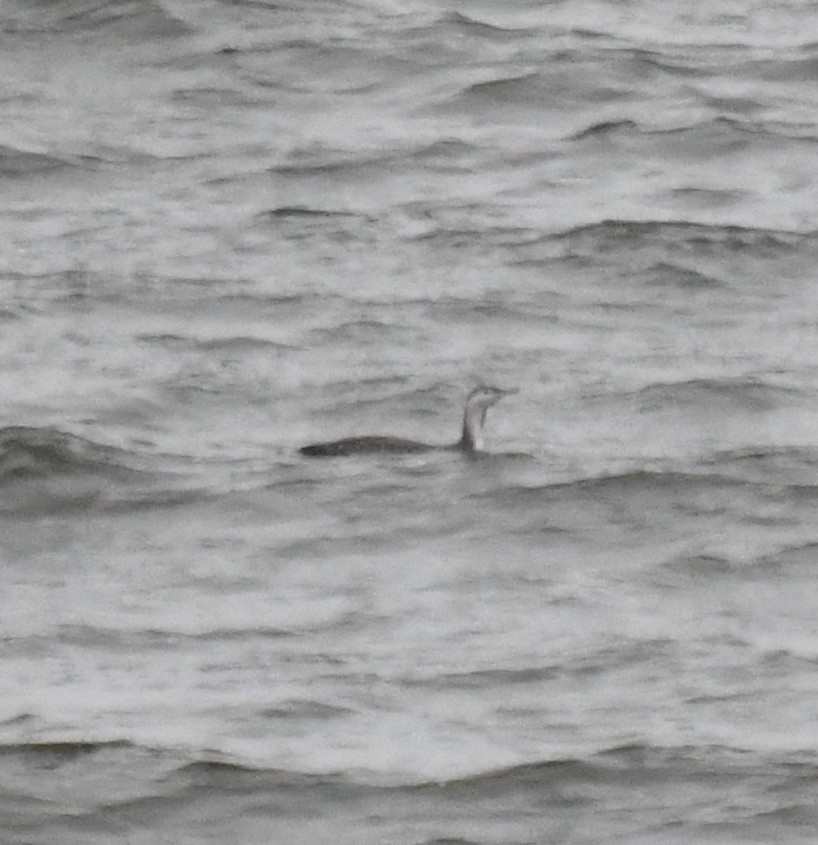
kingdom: Animalia
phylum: Chordata
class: Aves
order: Gaviiformes
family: Gaviidae
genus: Gavia
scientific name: Gavia stellata
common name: Red-throated loon
